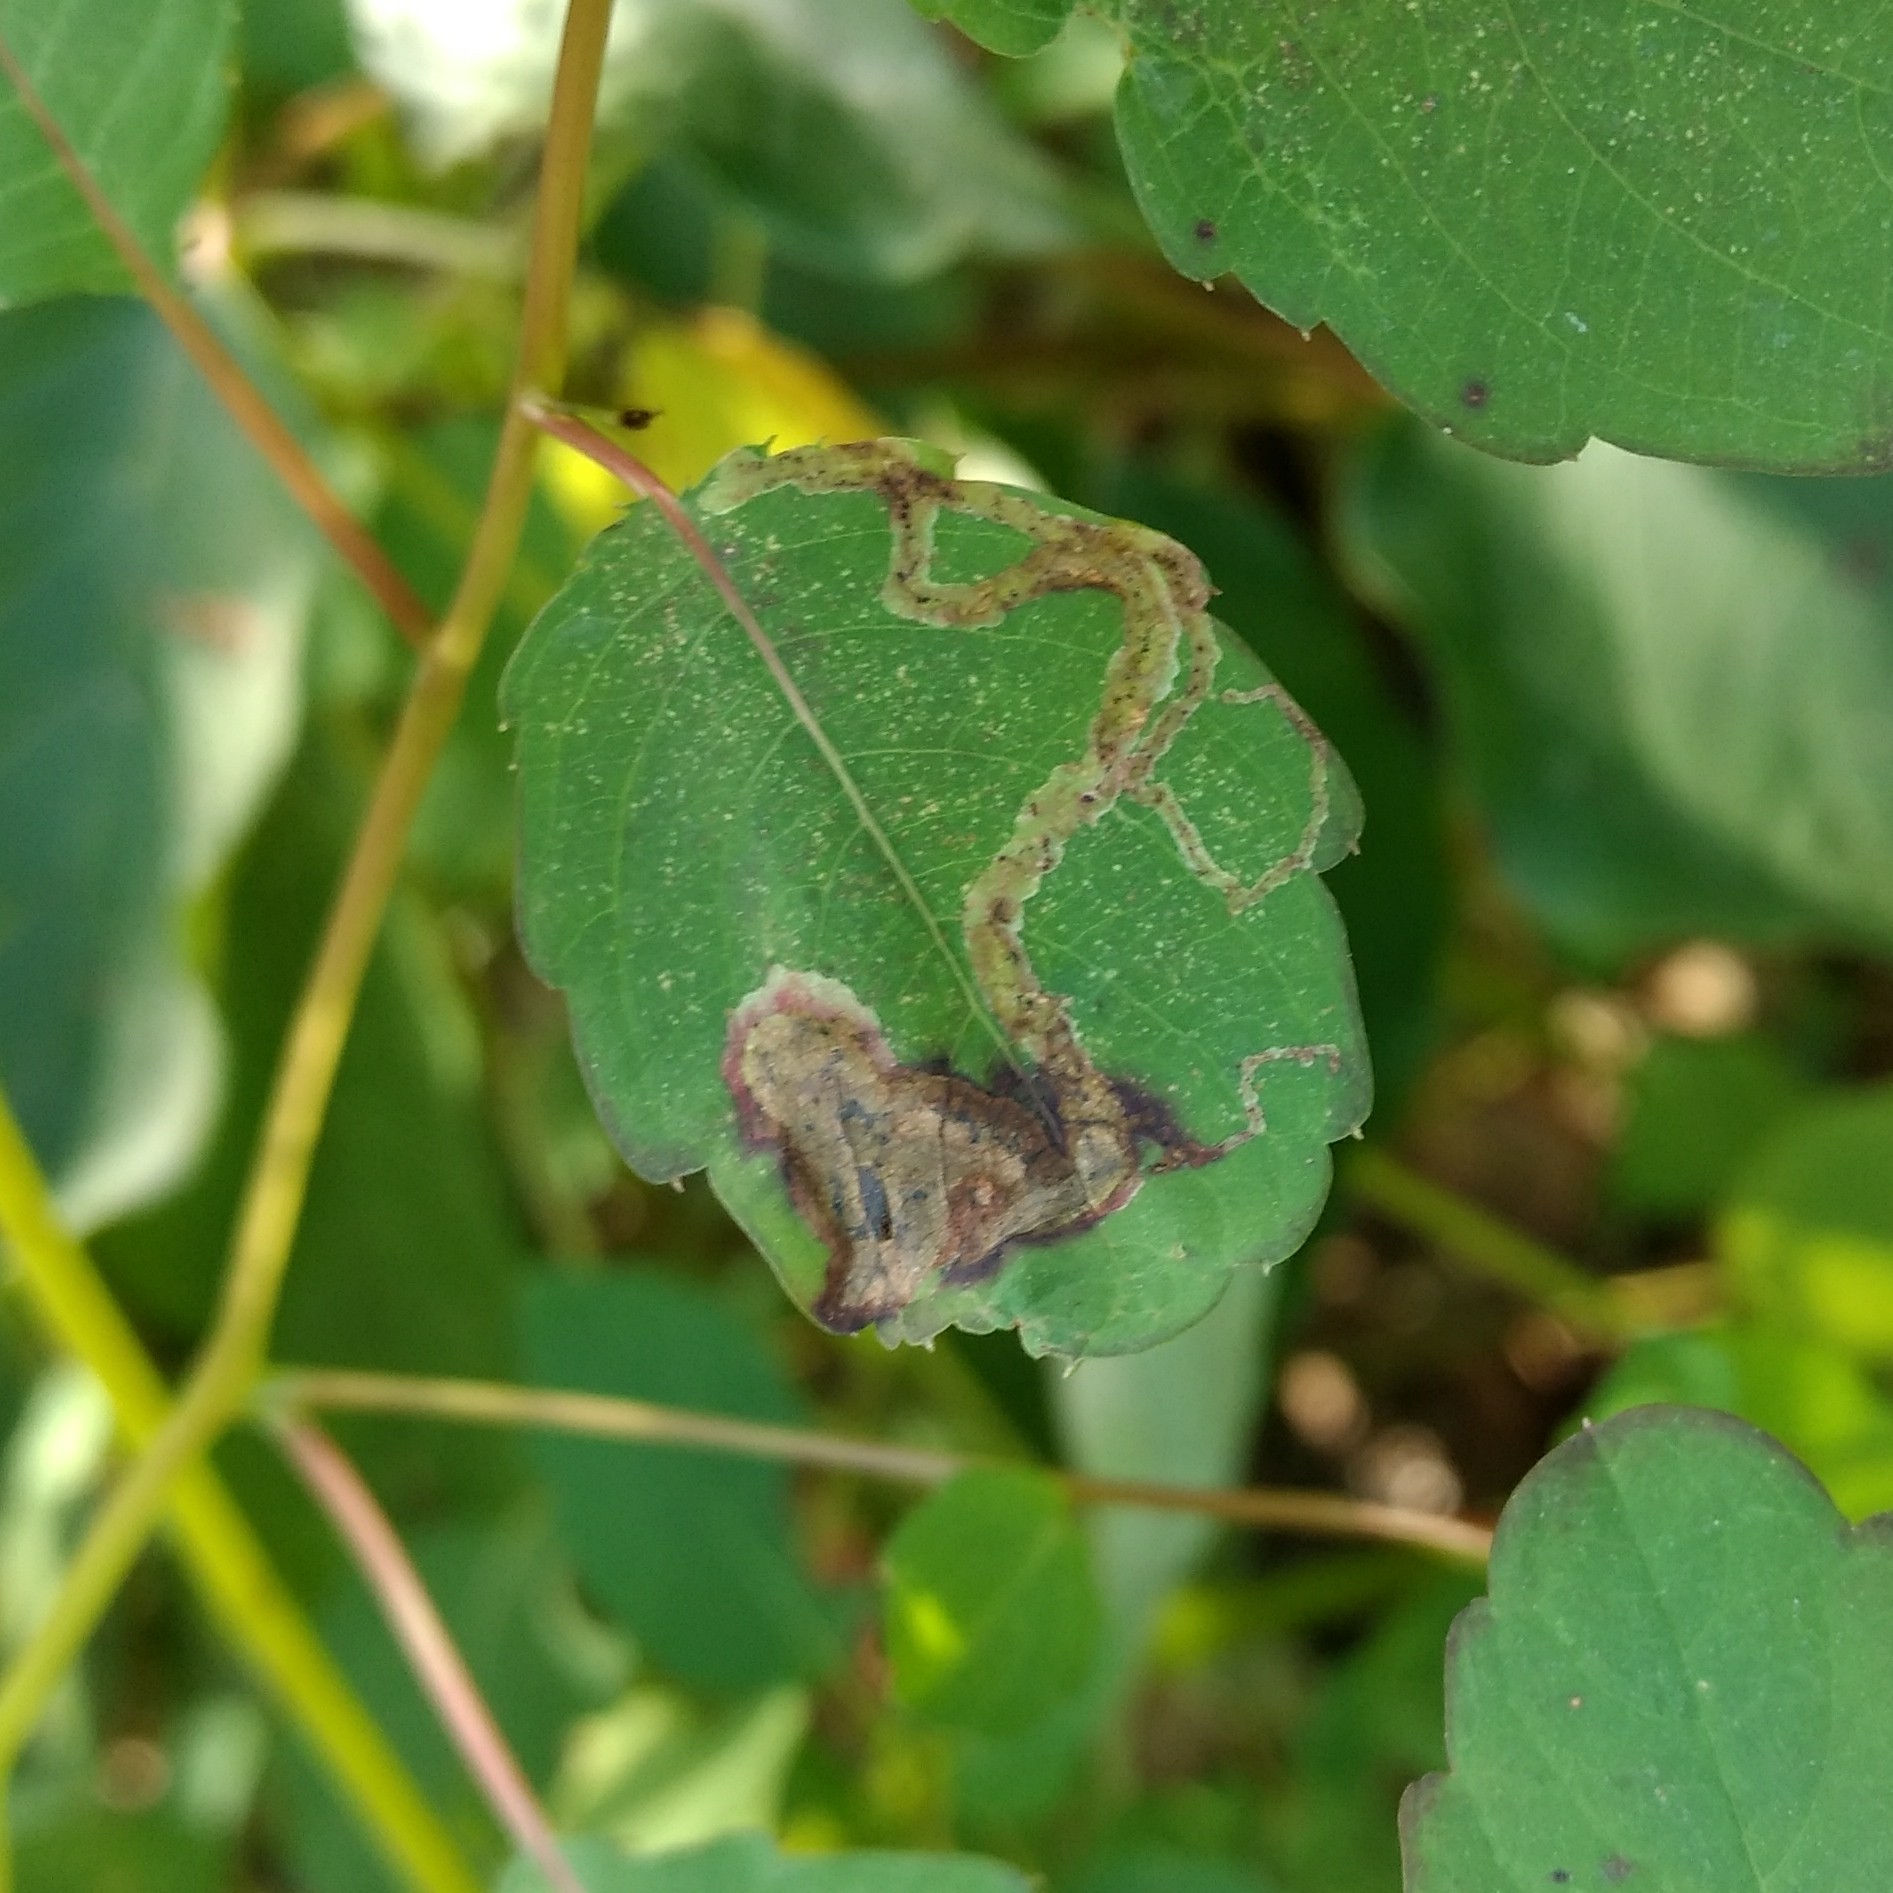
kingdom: Animalia
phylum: Arthropoda
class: Insecta
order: Diptera
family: Agromyzidae
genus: Phytoliriomyza
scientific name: Phytoliriomyza melampyga
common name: Jewelweed leaf-miner fly
